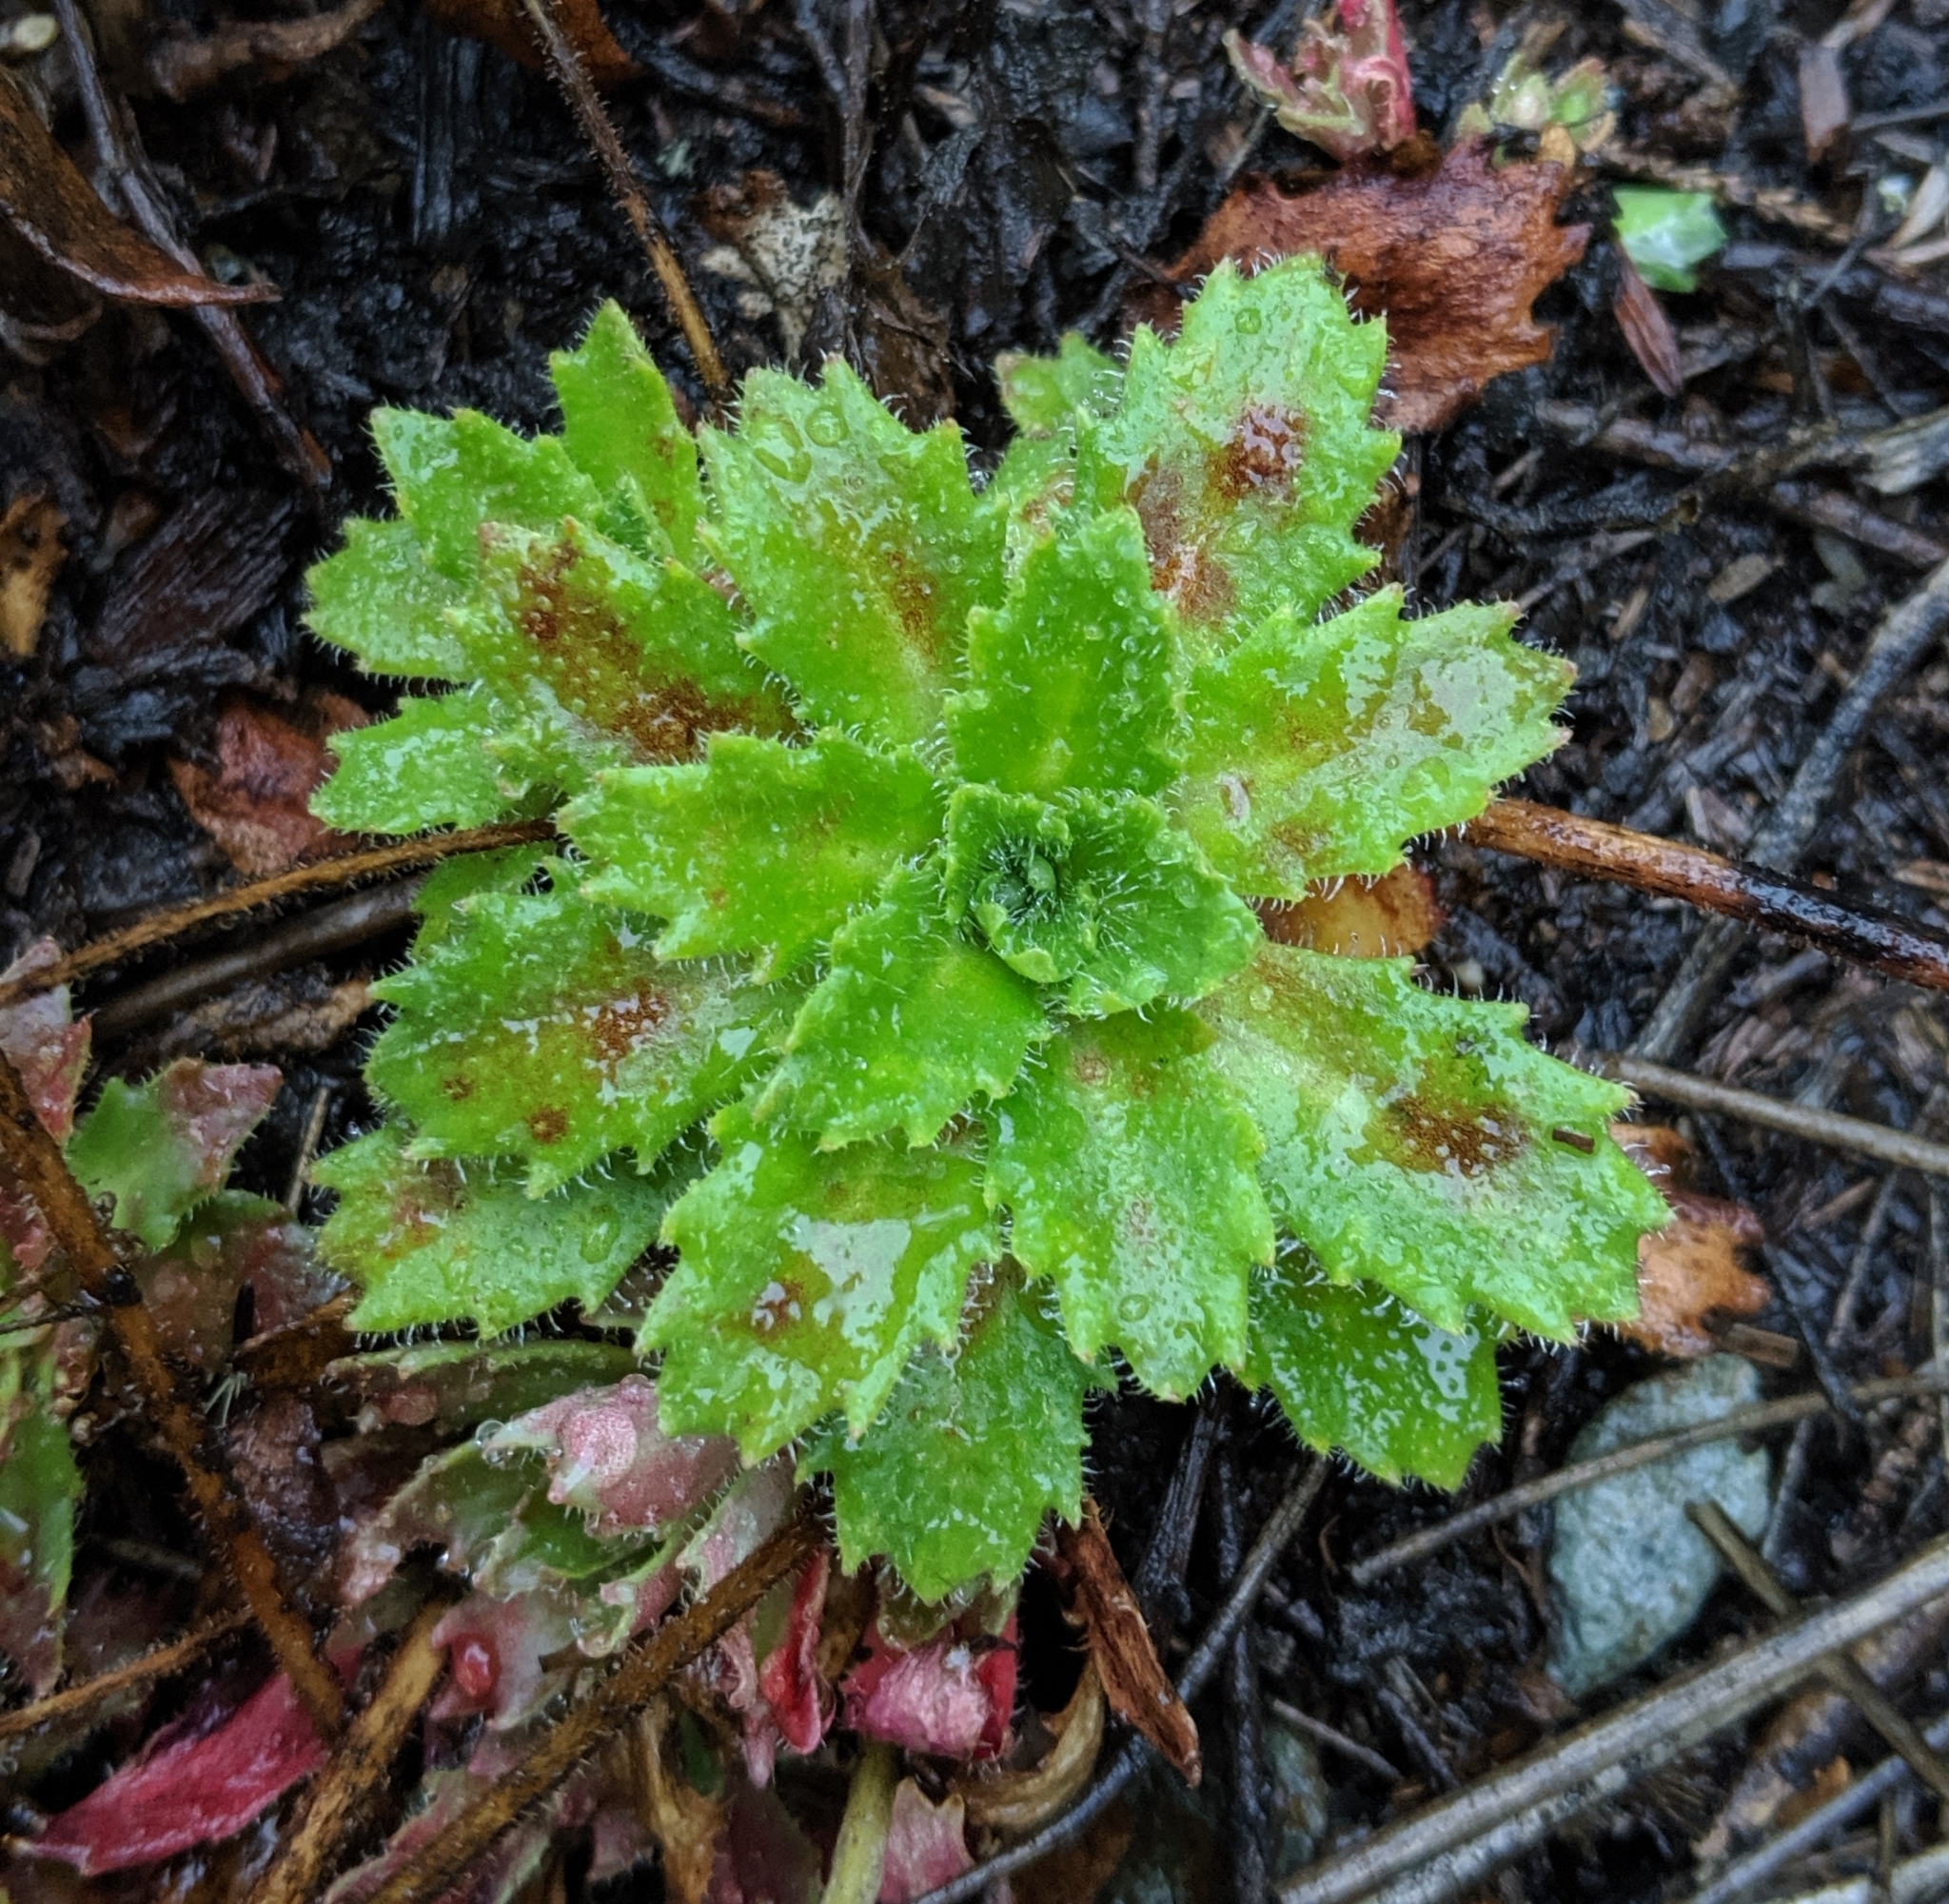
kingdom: Plantae
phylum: Tracheophyta
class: Magnoliopsida
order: Saxifragales
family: Saxifragaceae
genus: Micranthes
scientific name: Micranthes ferruginea
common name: Rusty saxifrage
